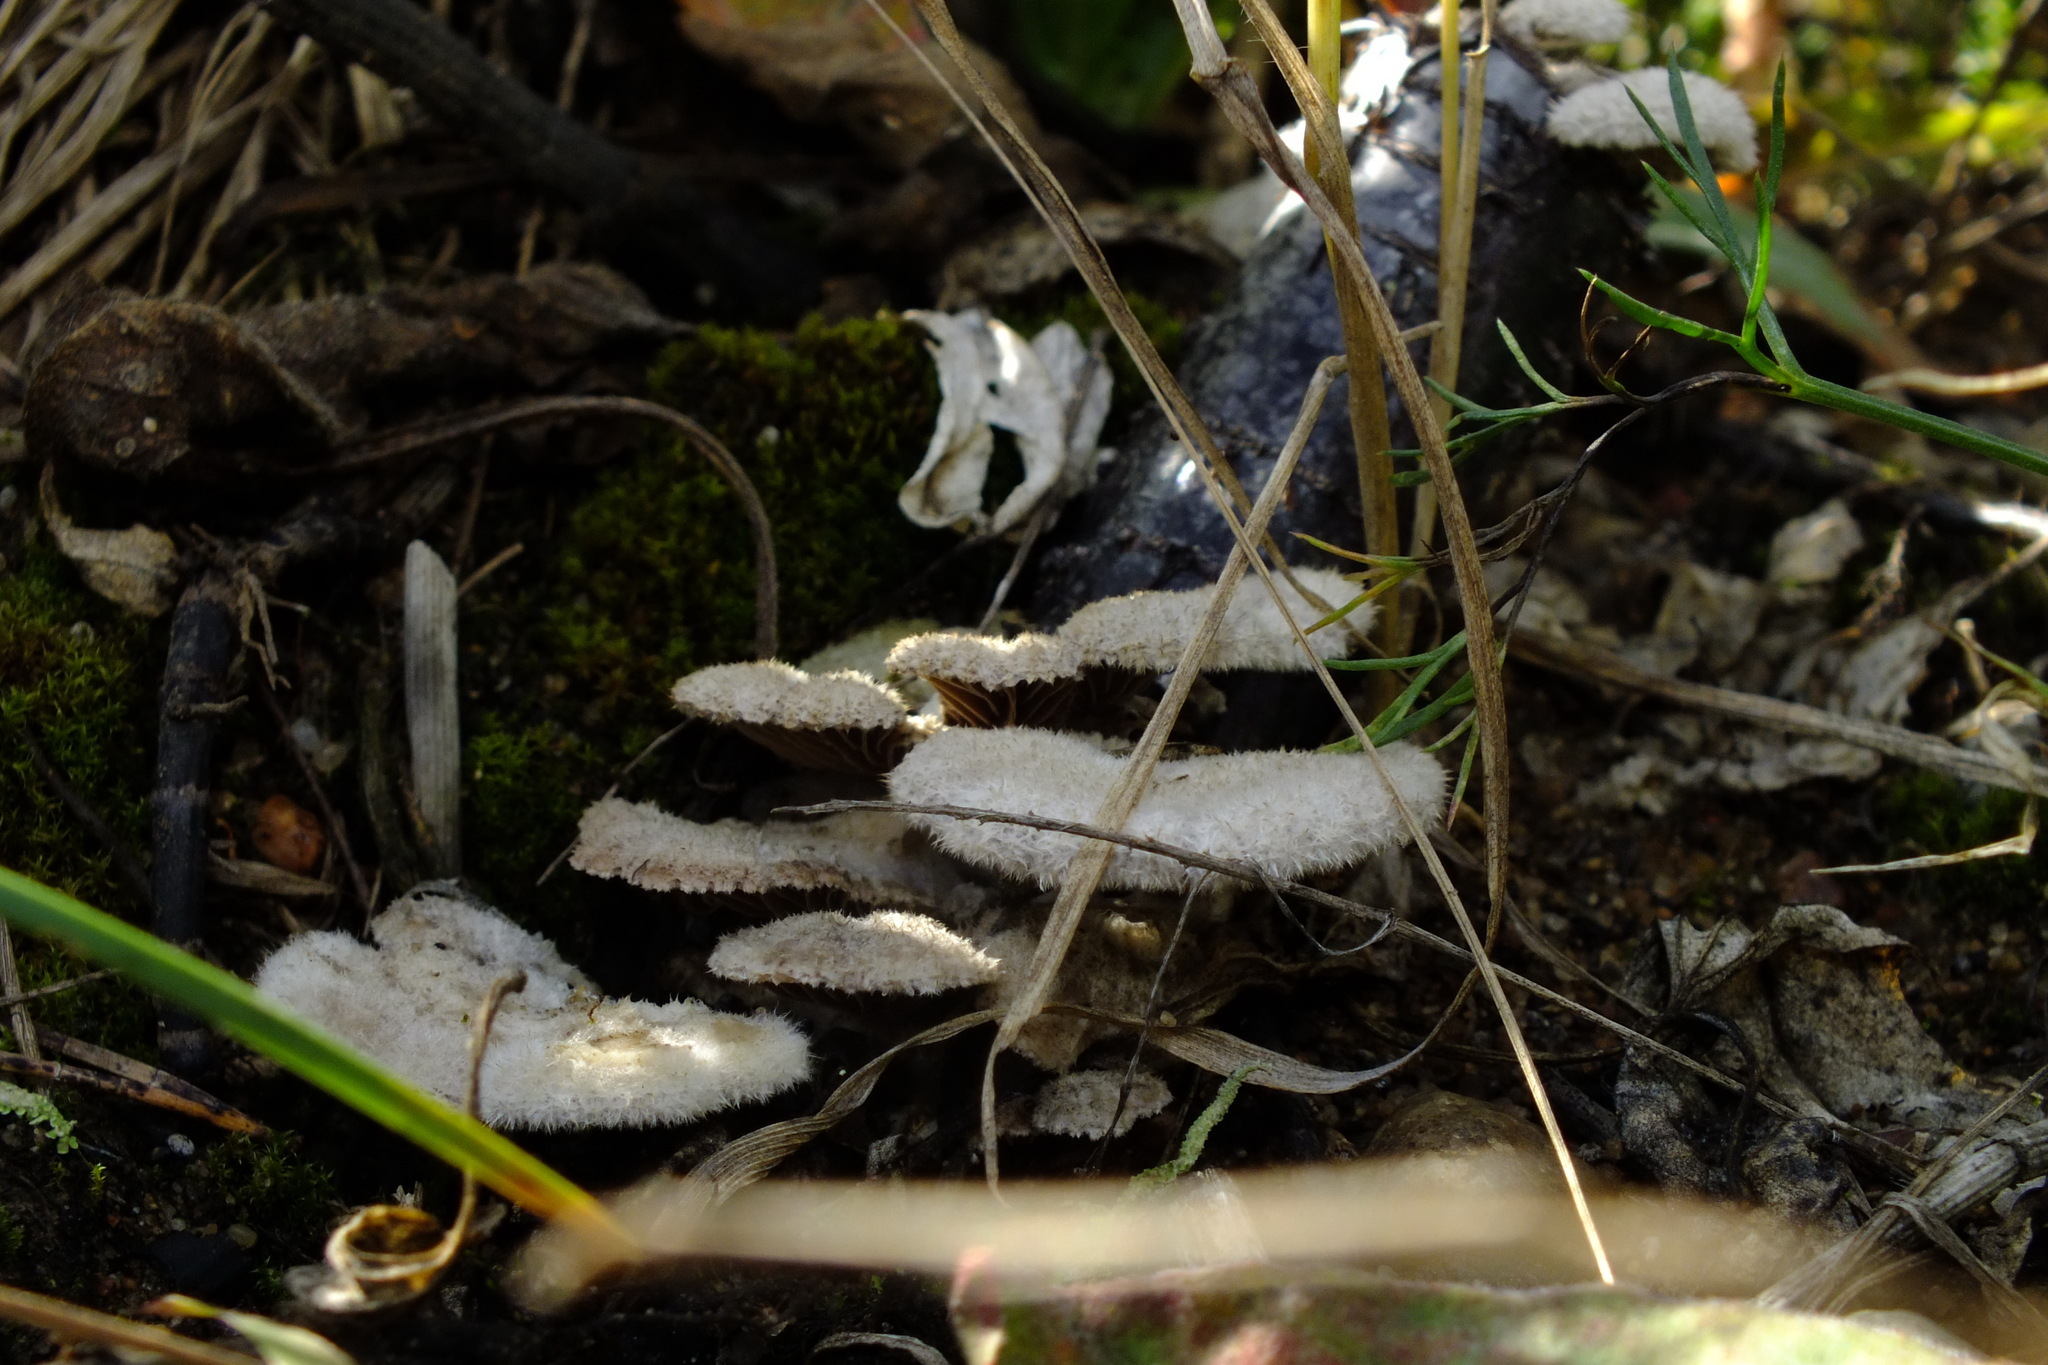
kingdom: Fungi
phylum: Basidiomycota
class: Agaricomycetes
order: Agaricales
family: Schizophyllaceae
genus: Schizophyllum
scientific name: Schizophyllum commune
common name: Common porecrust
